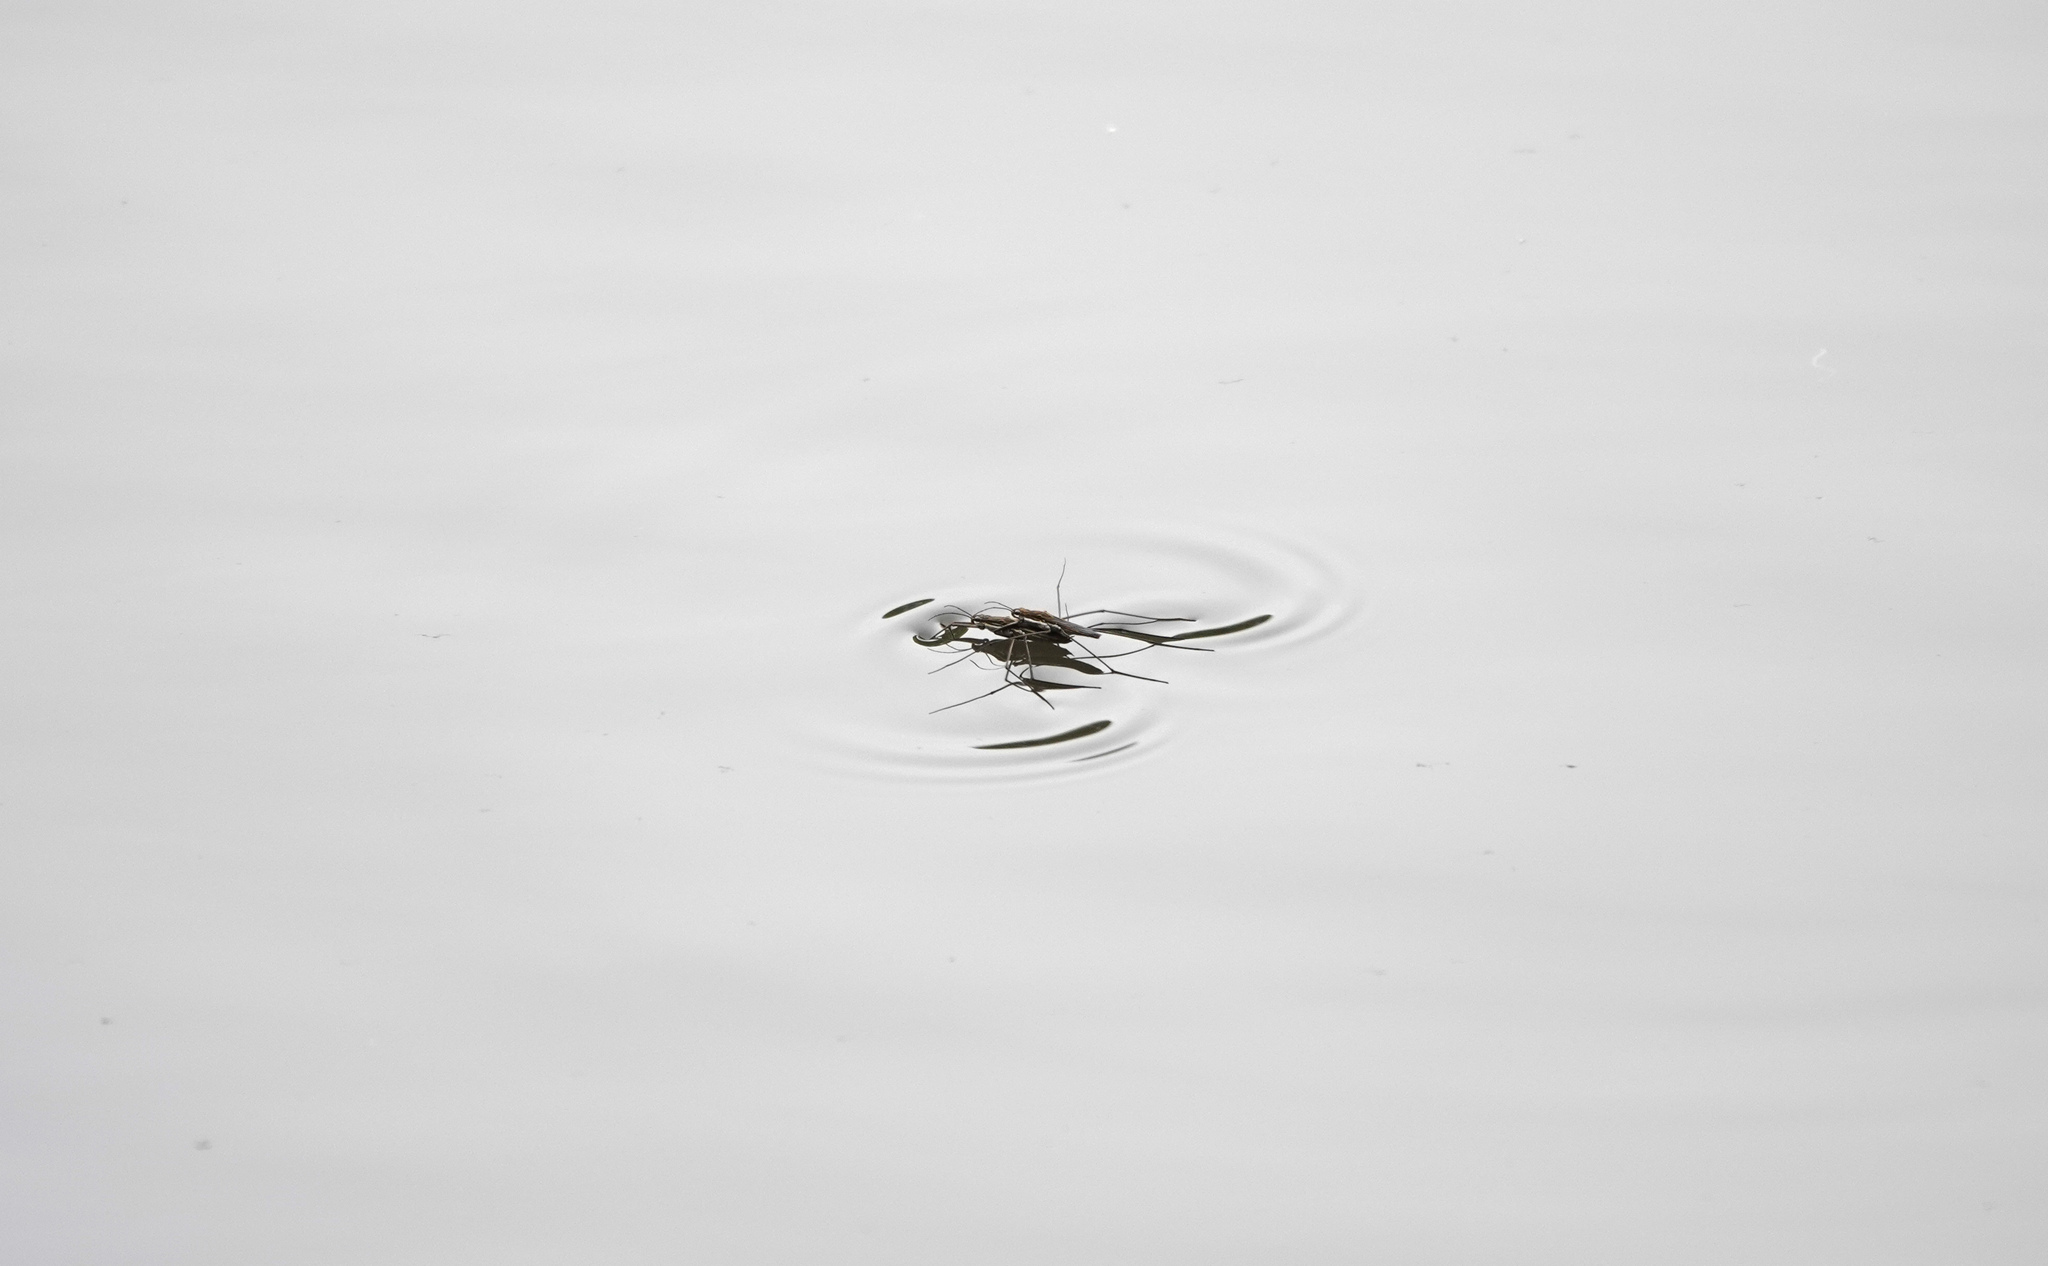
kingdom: Animalia
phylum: Arthropoda
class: Insecta
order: Hemiptera
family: Gerridae
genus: Aquarius
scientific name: Aquarius paludum
